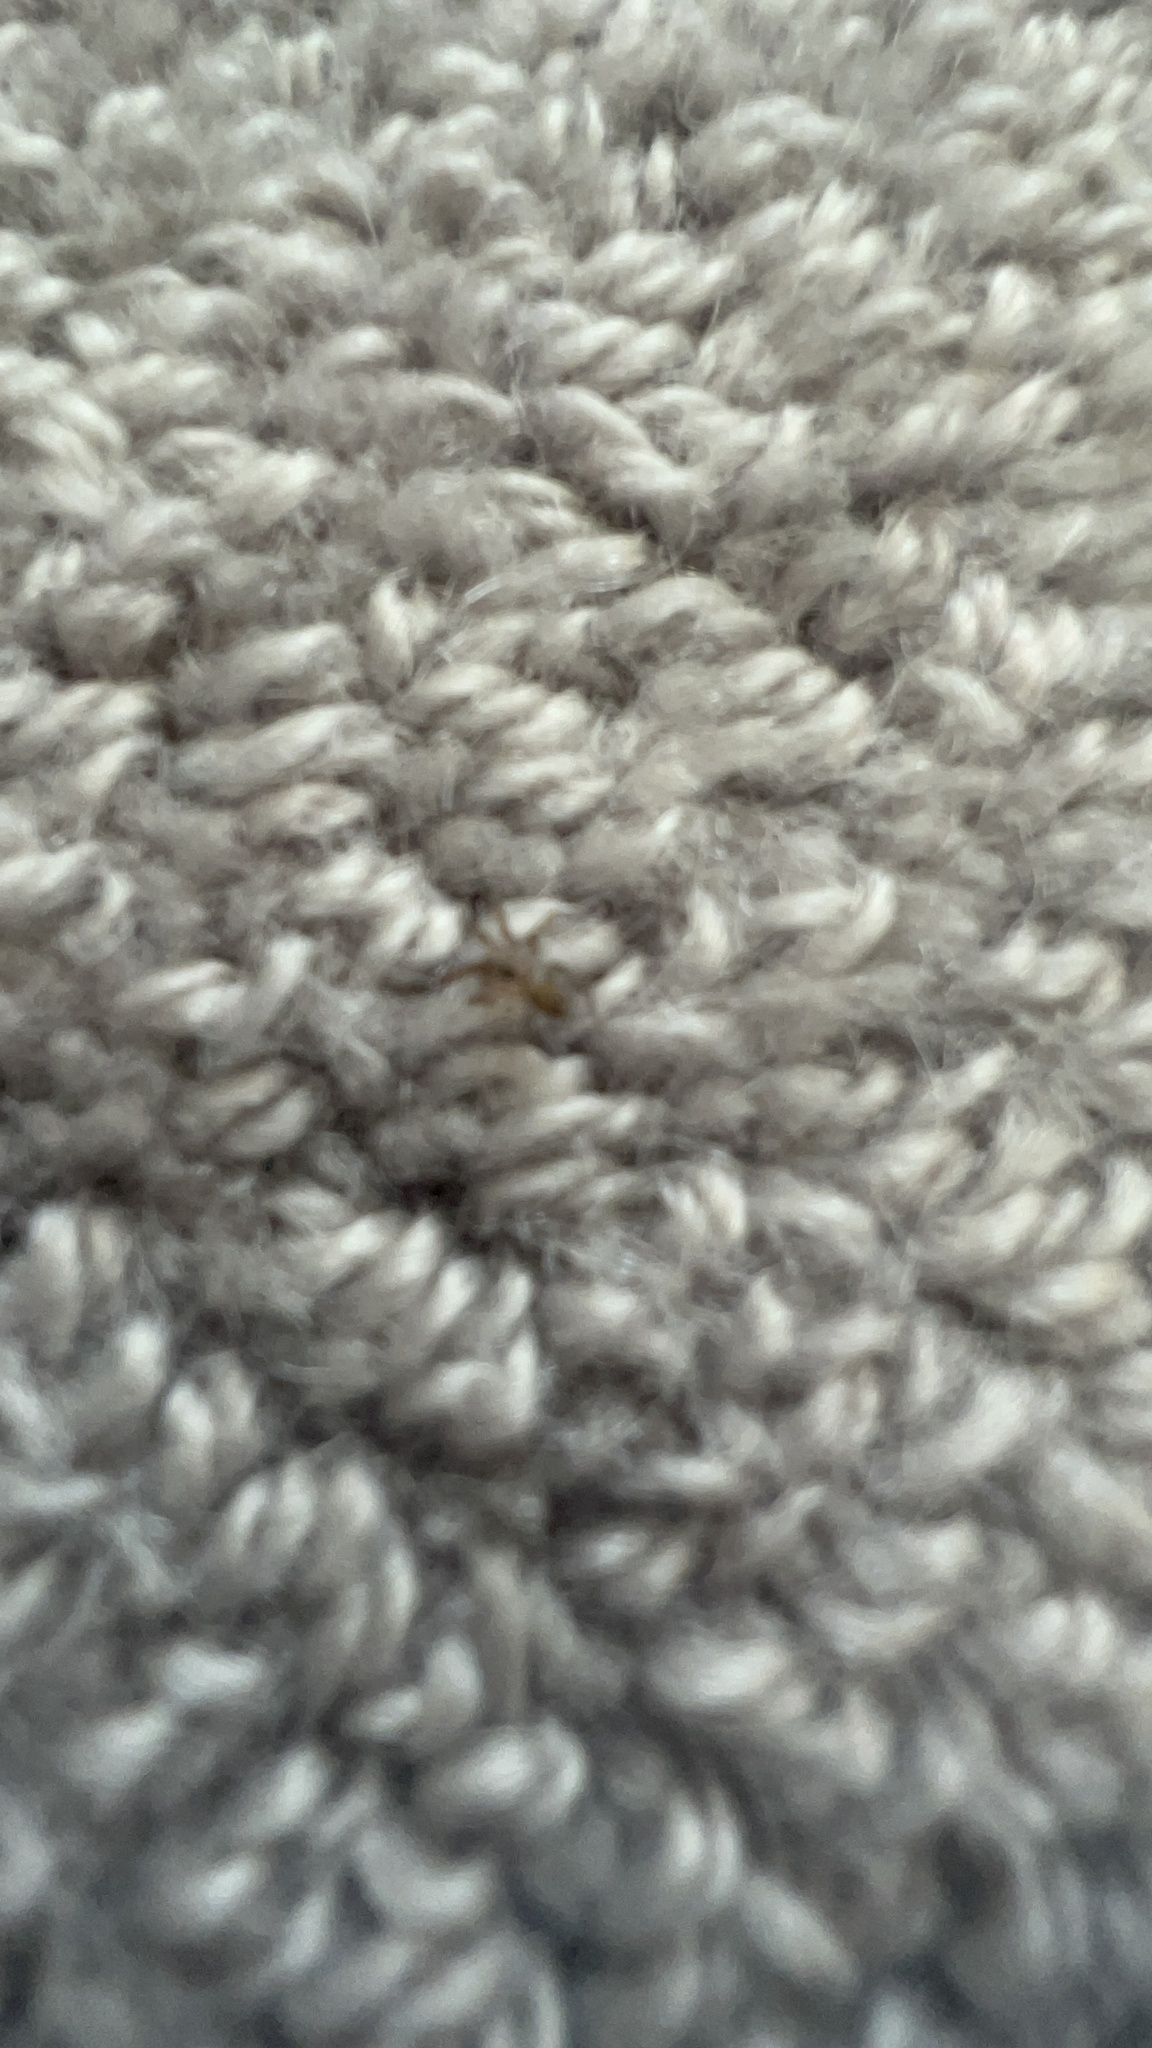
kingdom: Animalia
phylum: Arthropoda
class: Arachnida
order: Araneae
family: Oecobiidae
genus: Oecobius
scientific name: Oecobius navus
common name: Flatmesh weaver
